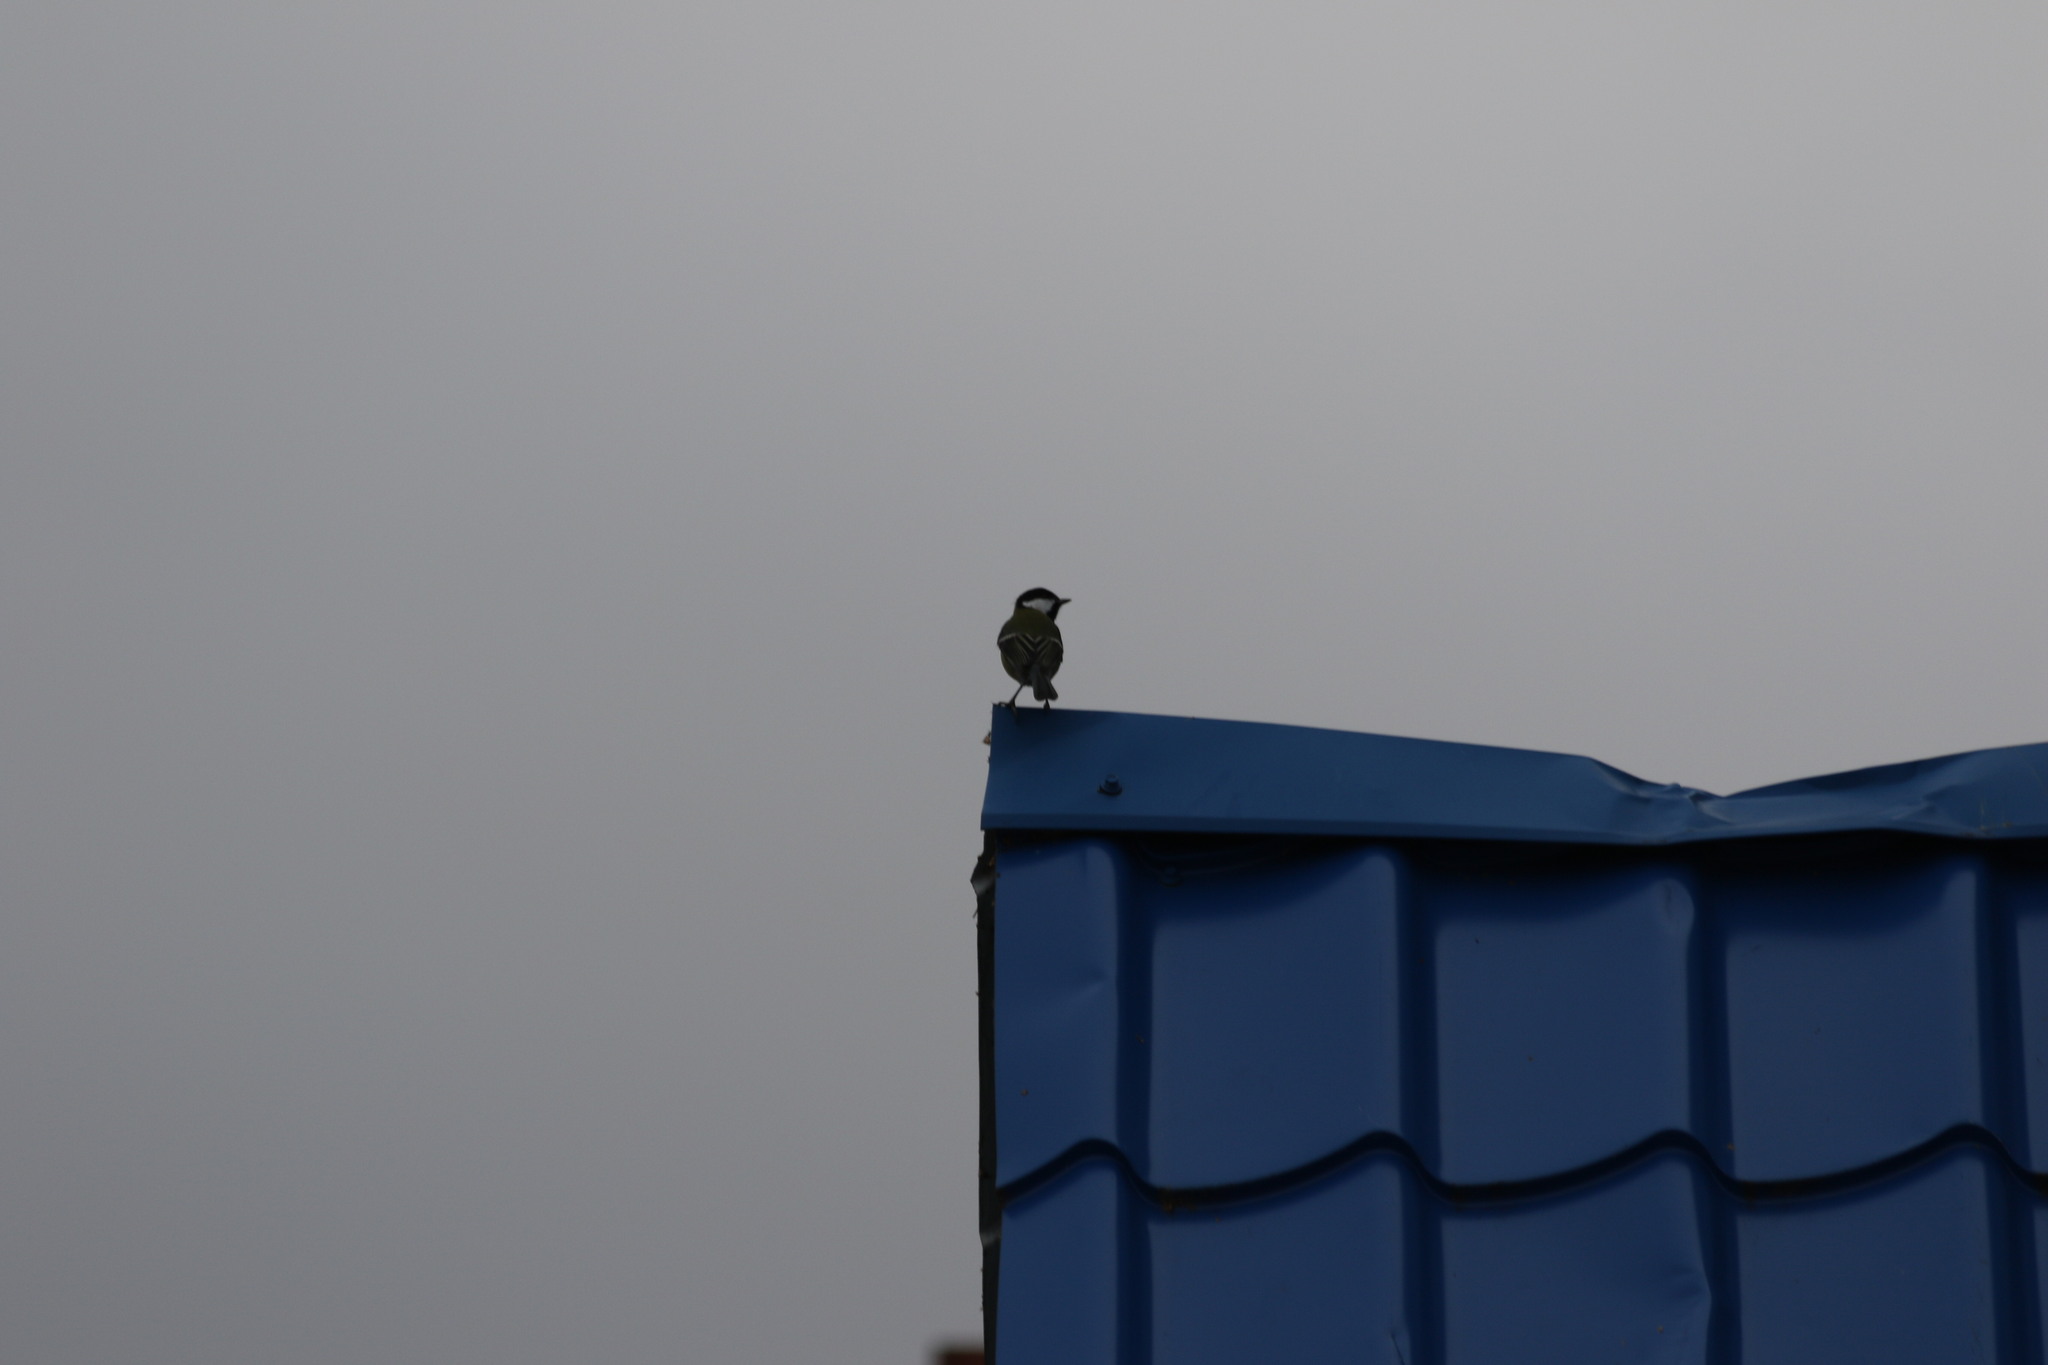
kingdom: Animalia
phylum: Chordata
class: Aves
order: Passeriformes
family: Paridae
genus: Parus
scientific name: Parus major
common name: Great tit
